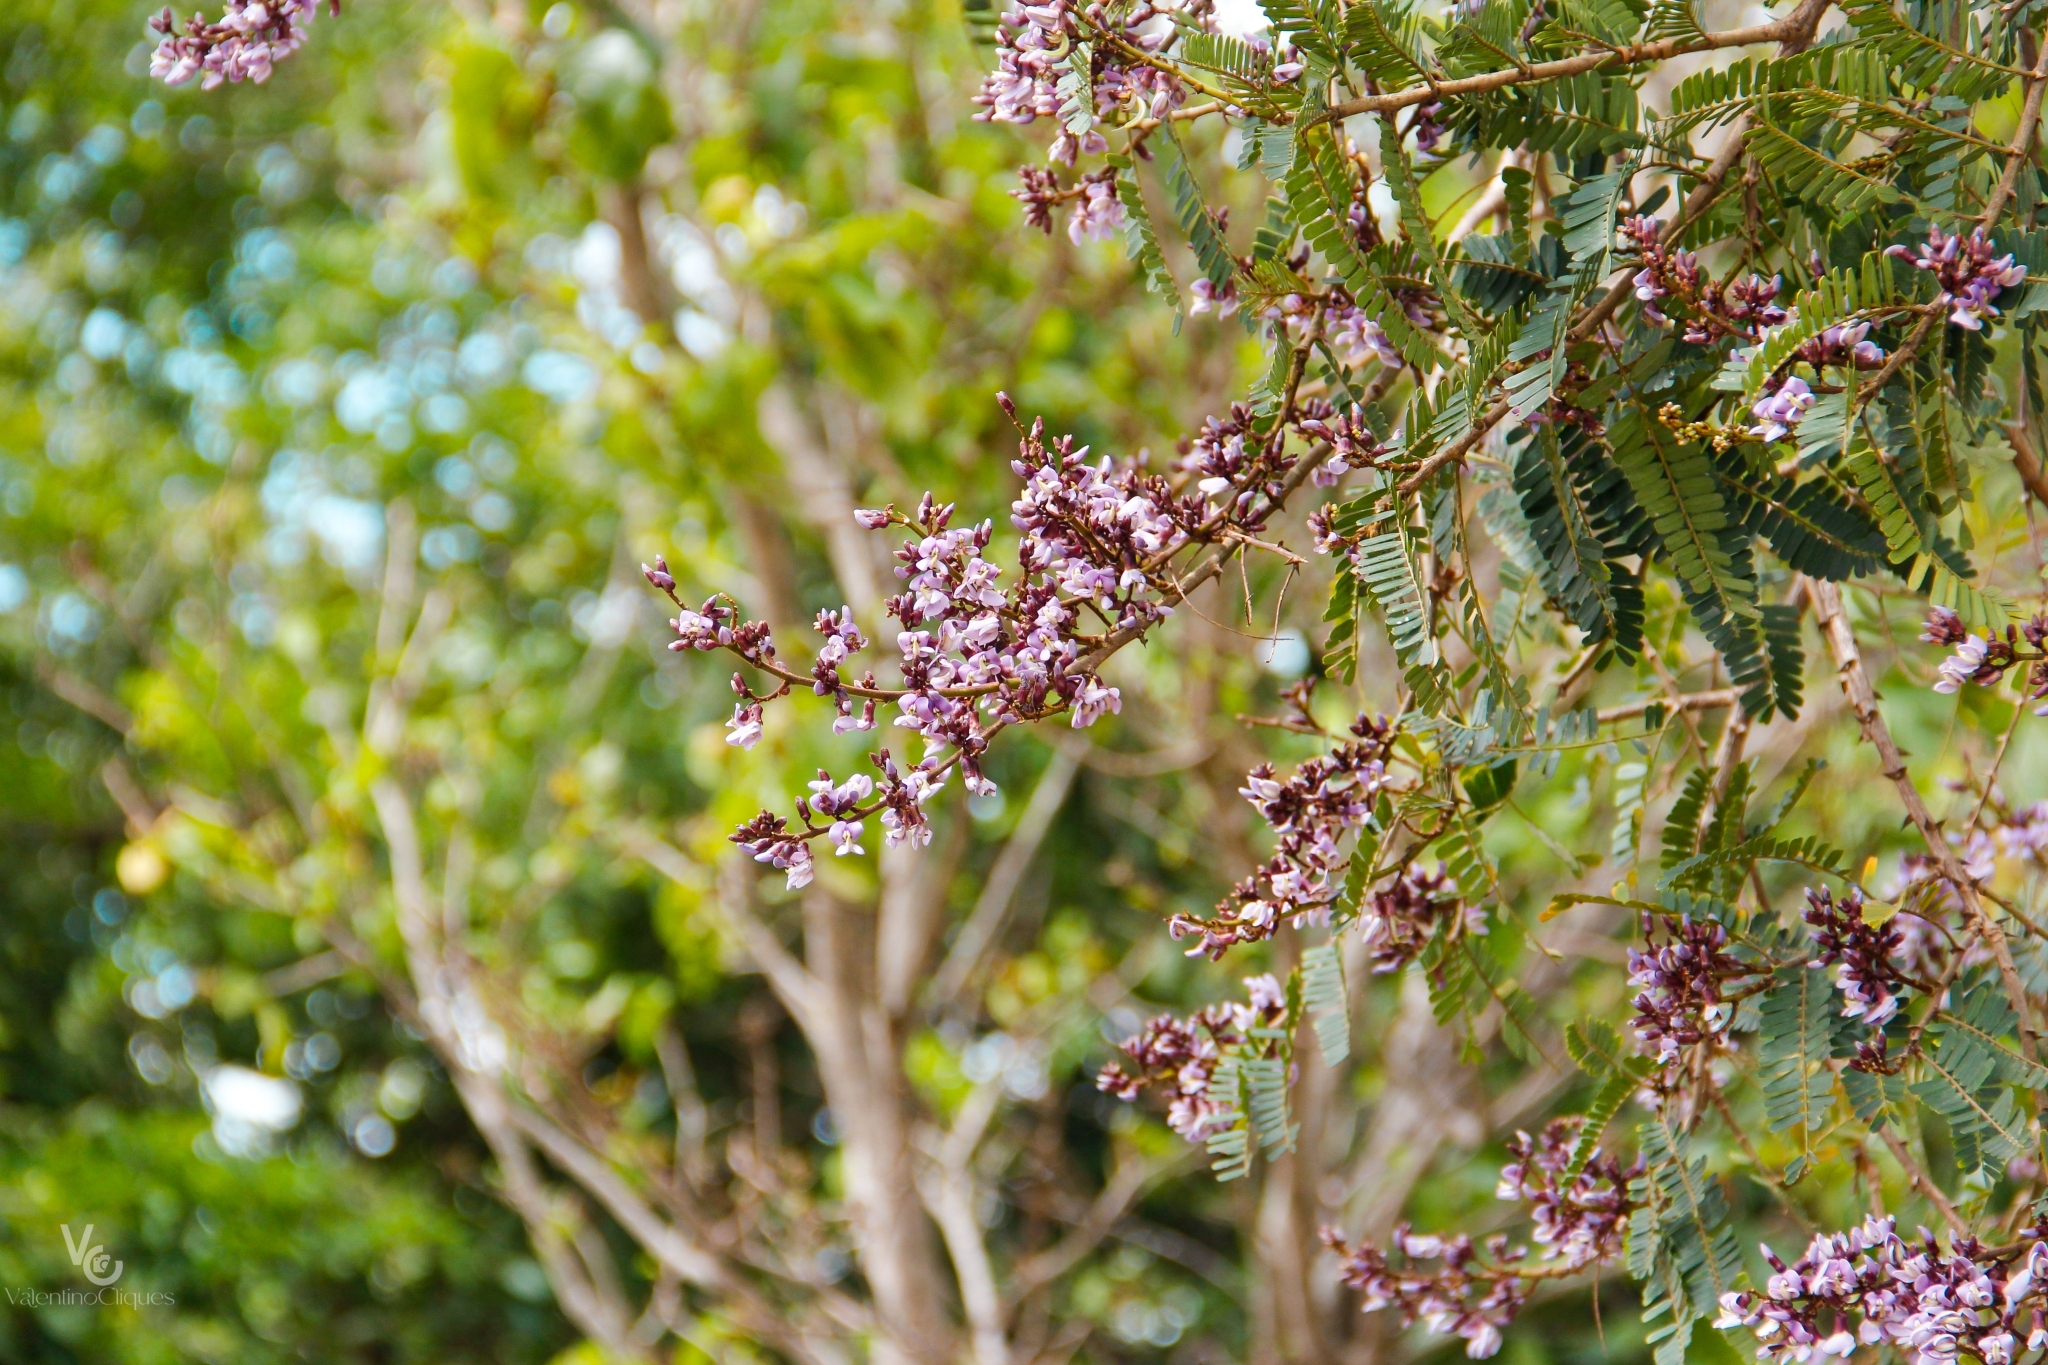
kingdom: Plantae
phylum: Tracheophyta
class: Magnoliopsida
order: Fabales
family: Fabaceae
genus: Machaerium
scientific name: Machaerium hirtum
